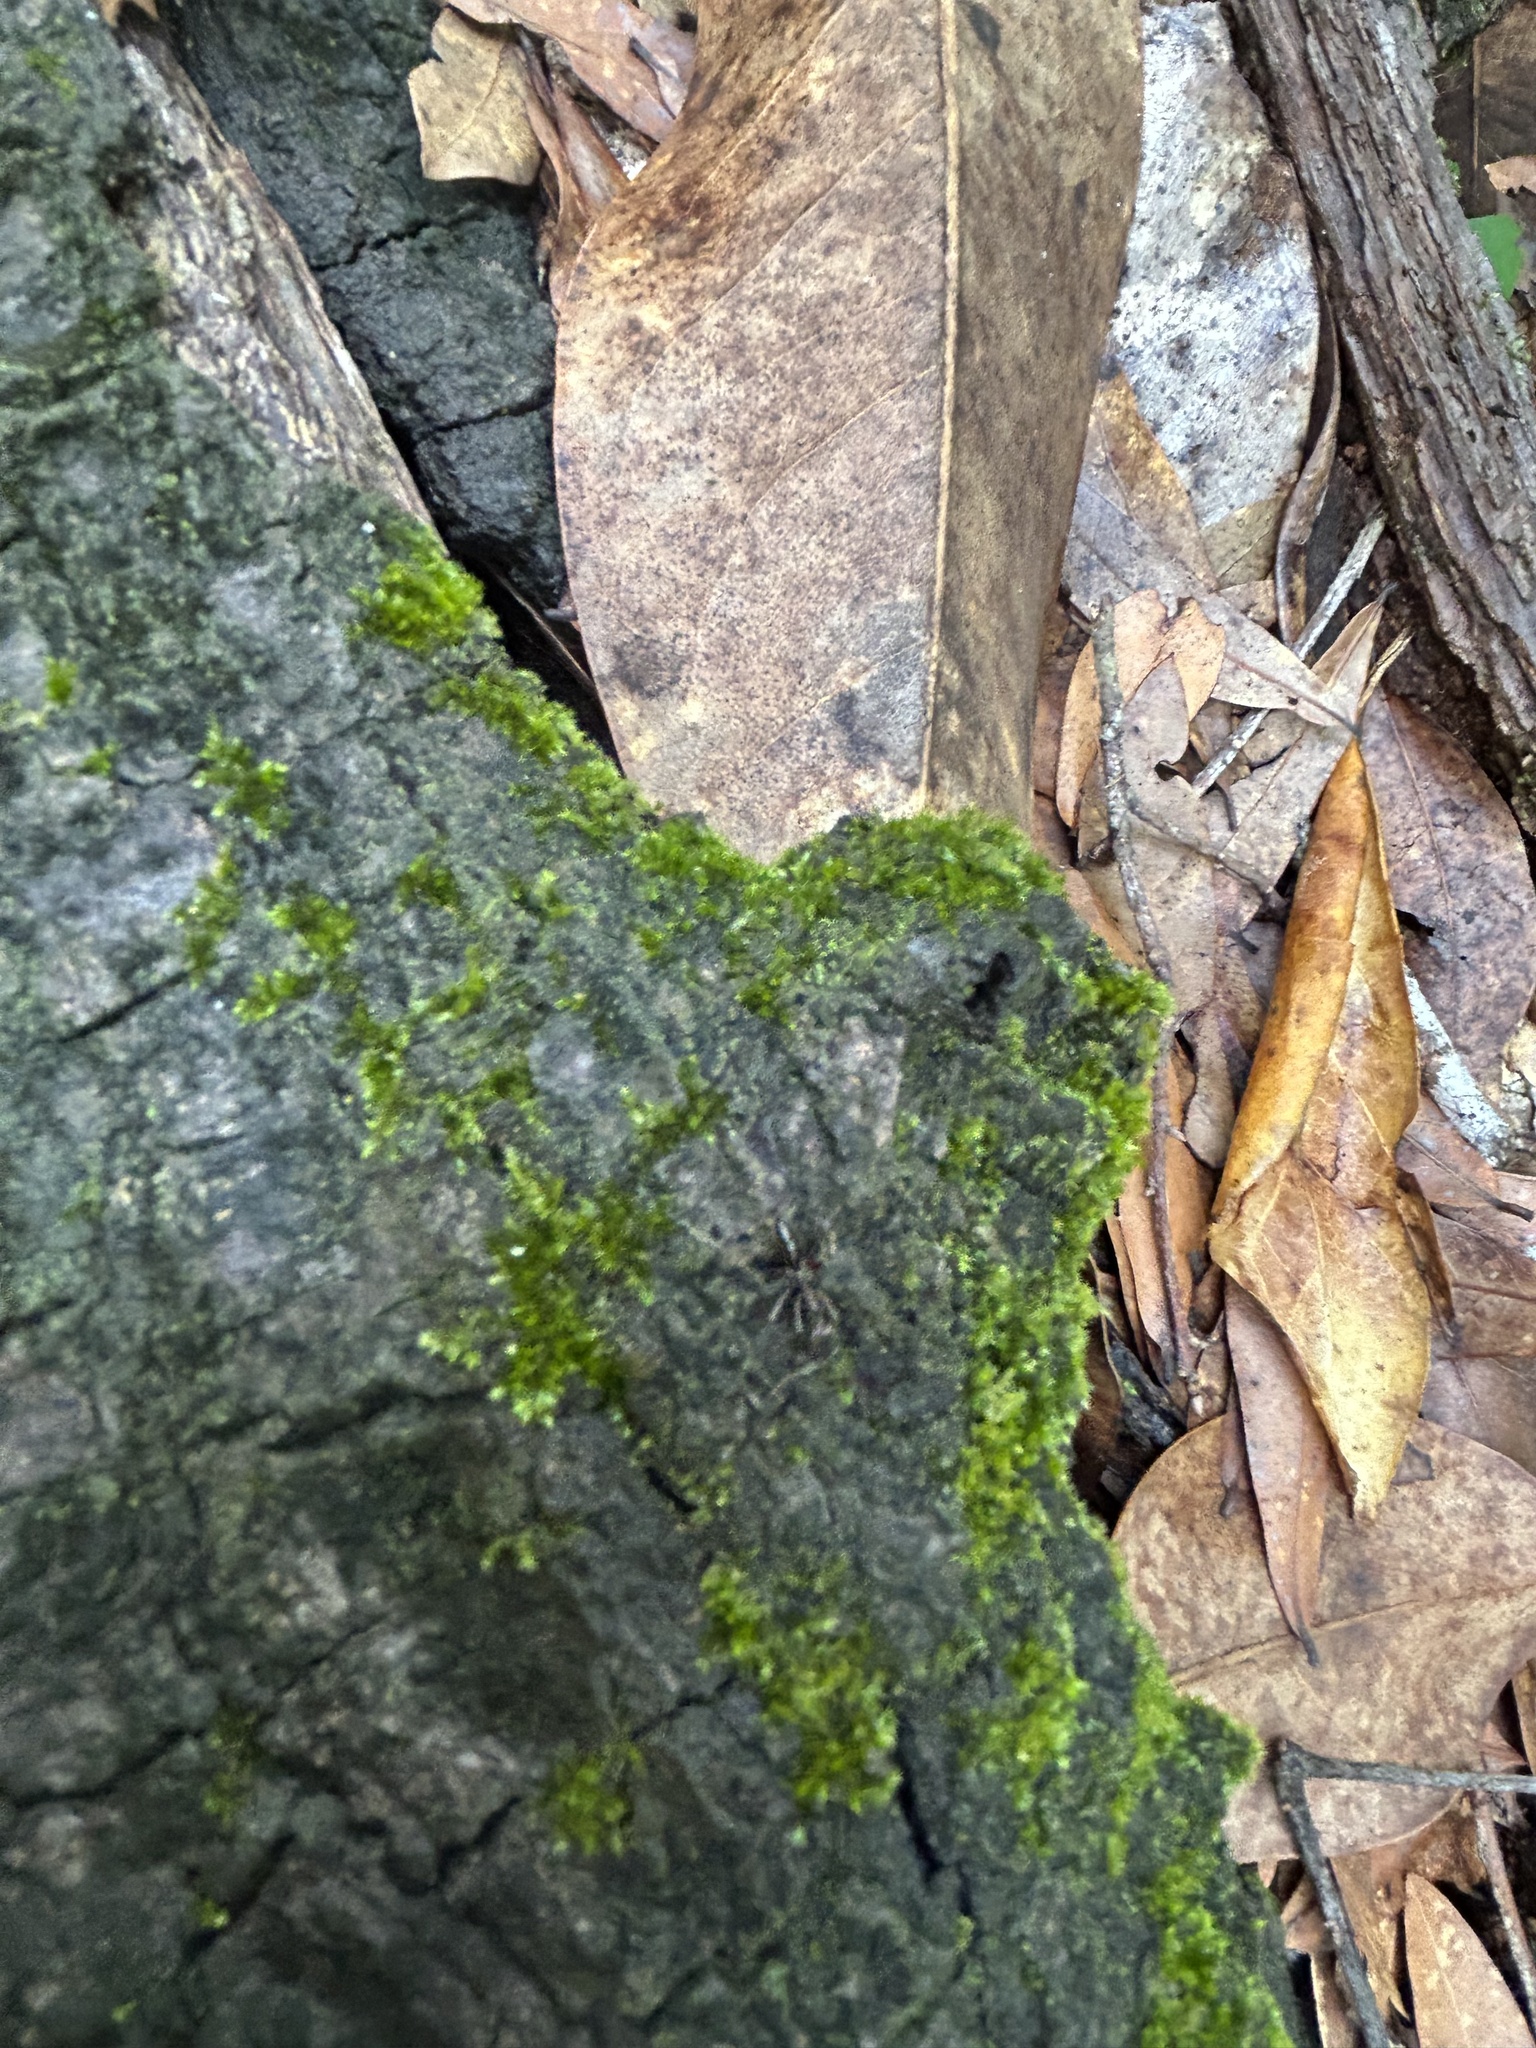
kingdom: Animalia
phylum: Arthropoda
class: Insecta
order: Hymenoptera
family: Formicidae
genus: Odontomachus
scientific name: Odontomachus haematodus
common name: Two-spined trapjaw ant
